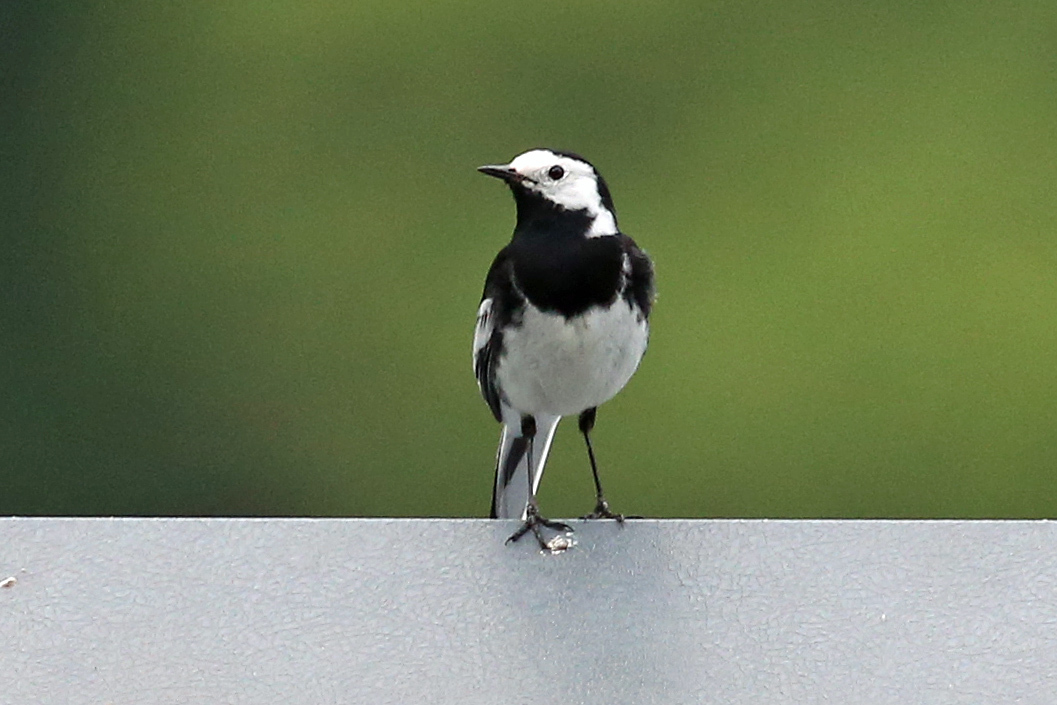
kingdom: Animalia
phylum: Chordata
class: Aves
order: Passeriformes
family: Motacillidae
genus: Motacilla
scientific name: Motacilla alba
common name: White wagtail
